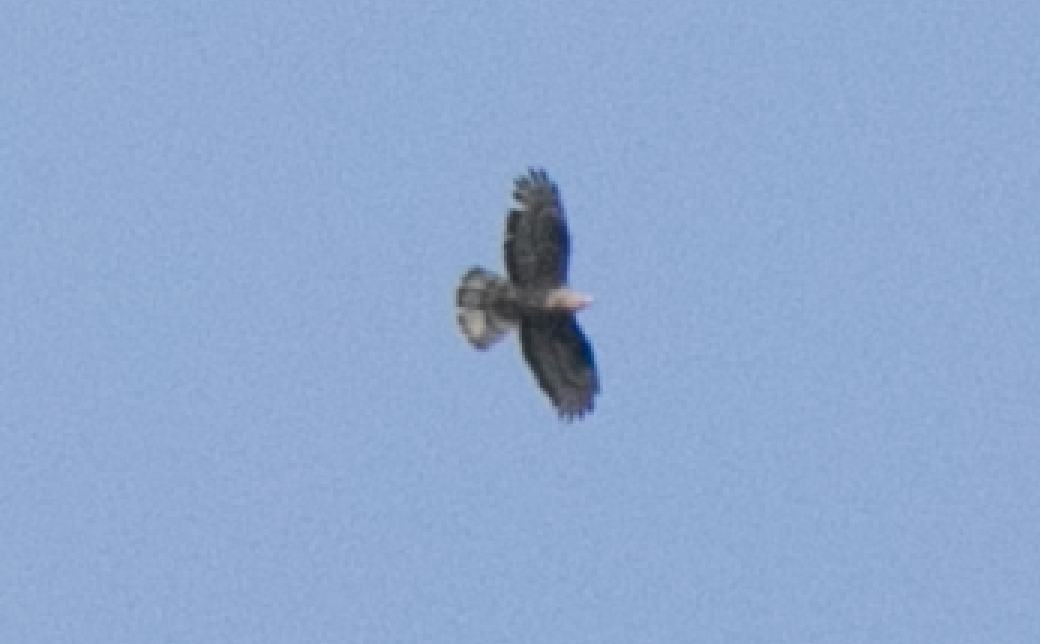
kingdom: Animalia
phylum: Chordata
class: Aves
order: Accipitriformes
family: Accipitridae
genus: Pernis
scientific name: Pernis apivorus
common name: European honey buzzard
